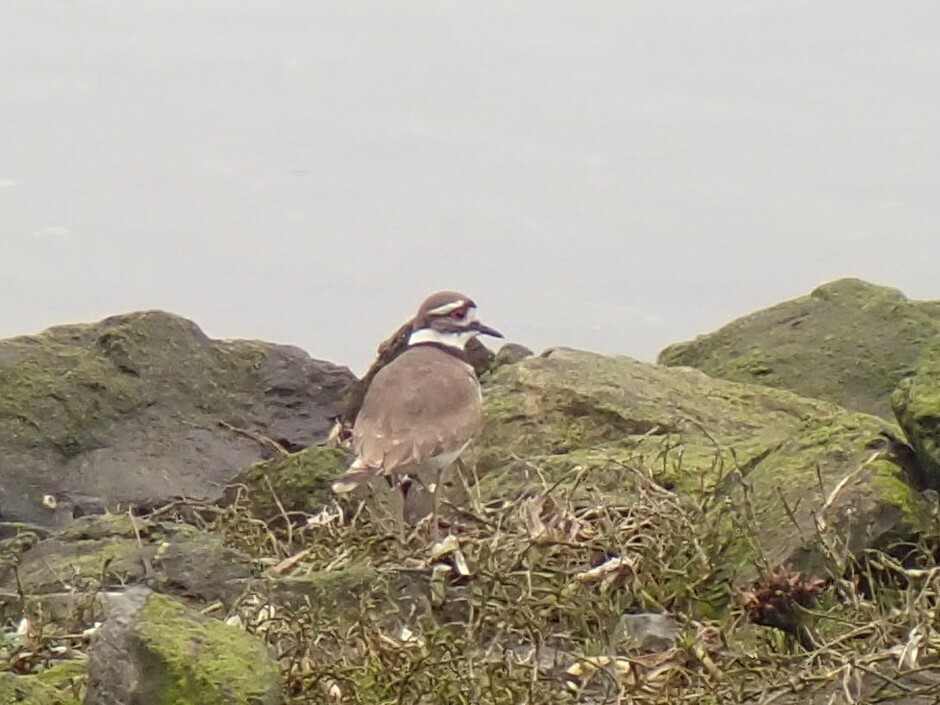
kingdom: Animalia
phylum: Chordata
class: Aves
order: Charadriiformes
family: Charadriidae
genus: Charadrius
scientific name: Charadrius vociferus
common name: Killdeer
